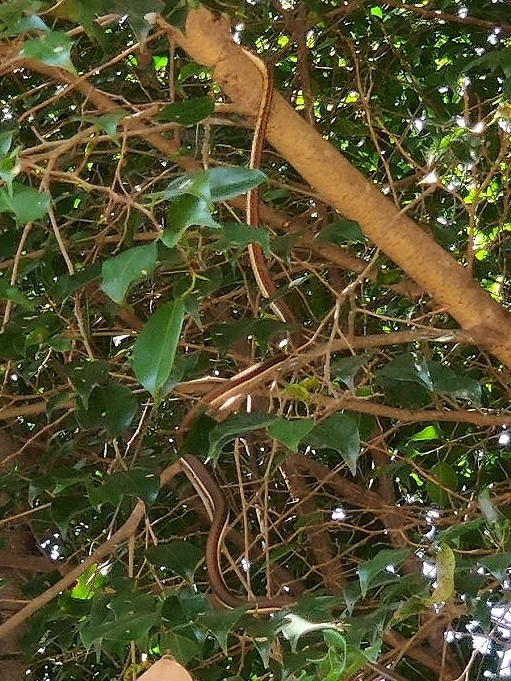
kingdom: Animalia
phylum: Chordata
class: Squamata
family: Colubridae
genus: Dendrelaphis
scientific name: Dendrelaphis tristis
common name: Daudin's bronzeback
